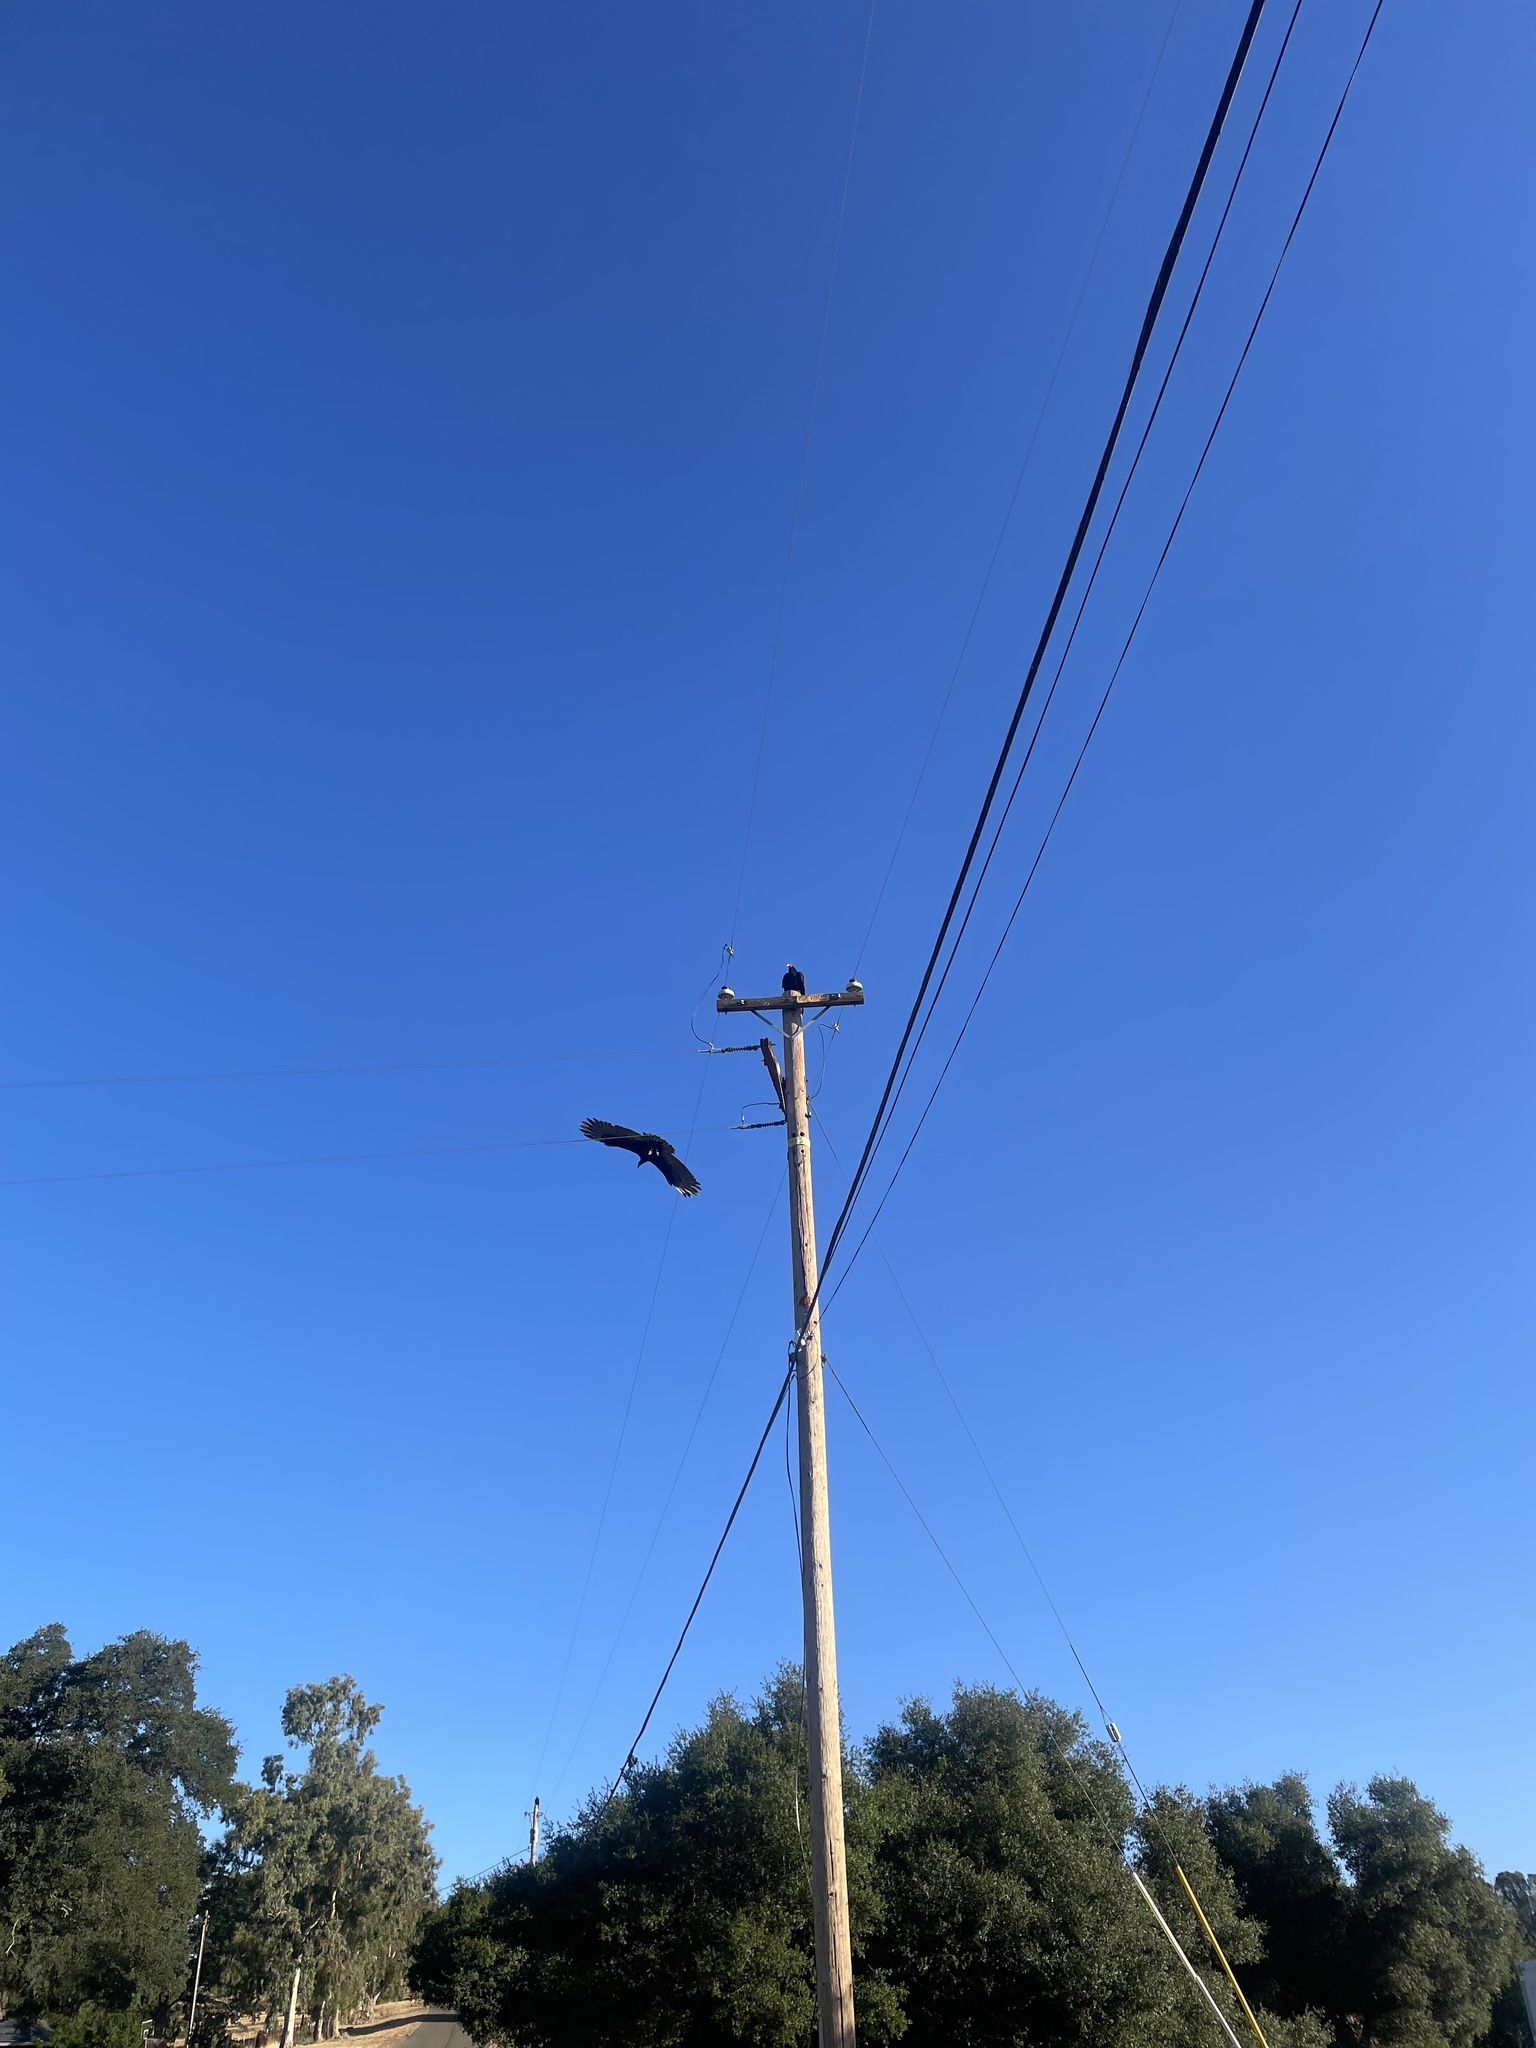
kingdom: Animalia
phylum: Chordata
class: Aves
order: Accipitriformes
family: Cathartidae
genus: Cathartes
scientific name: Cathartes aura
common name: Turkey vulture
